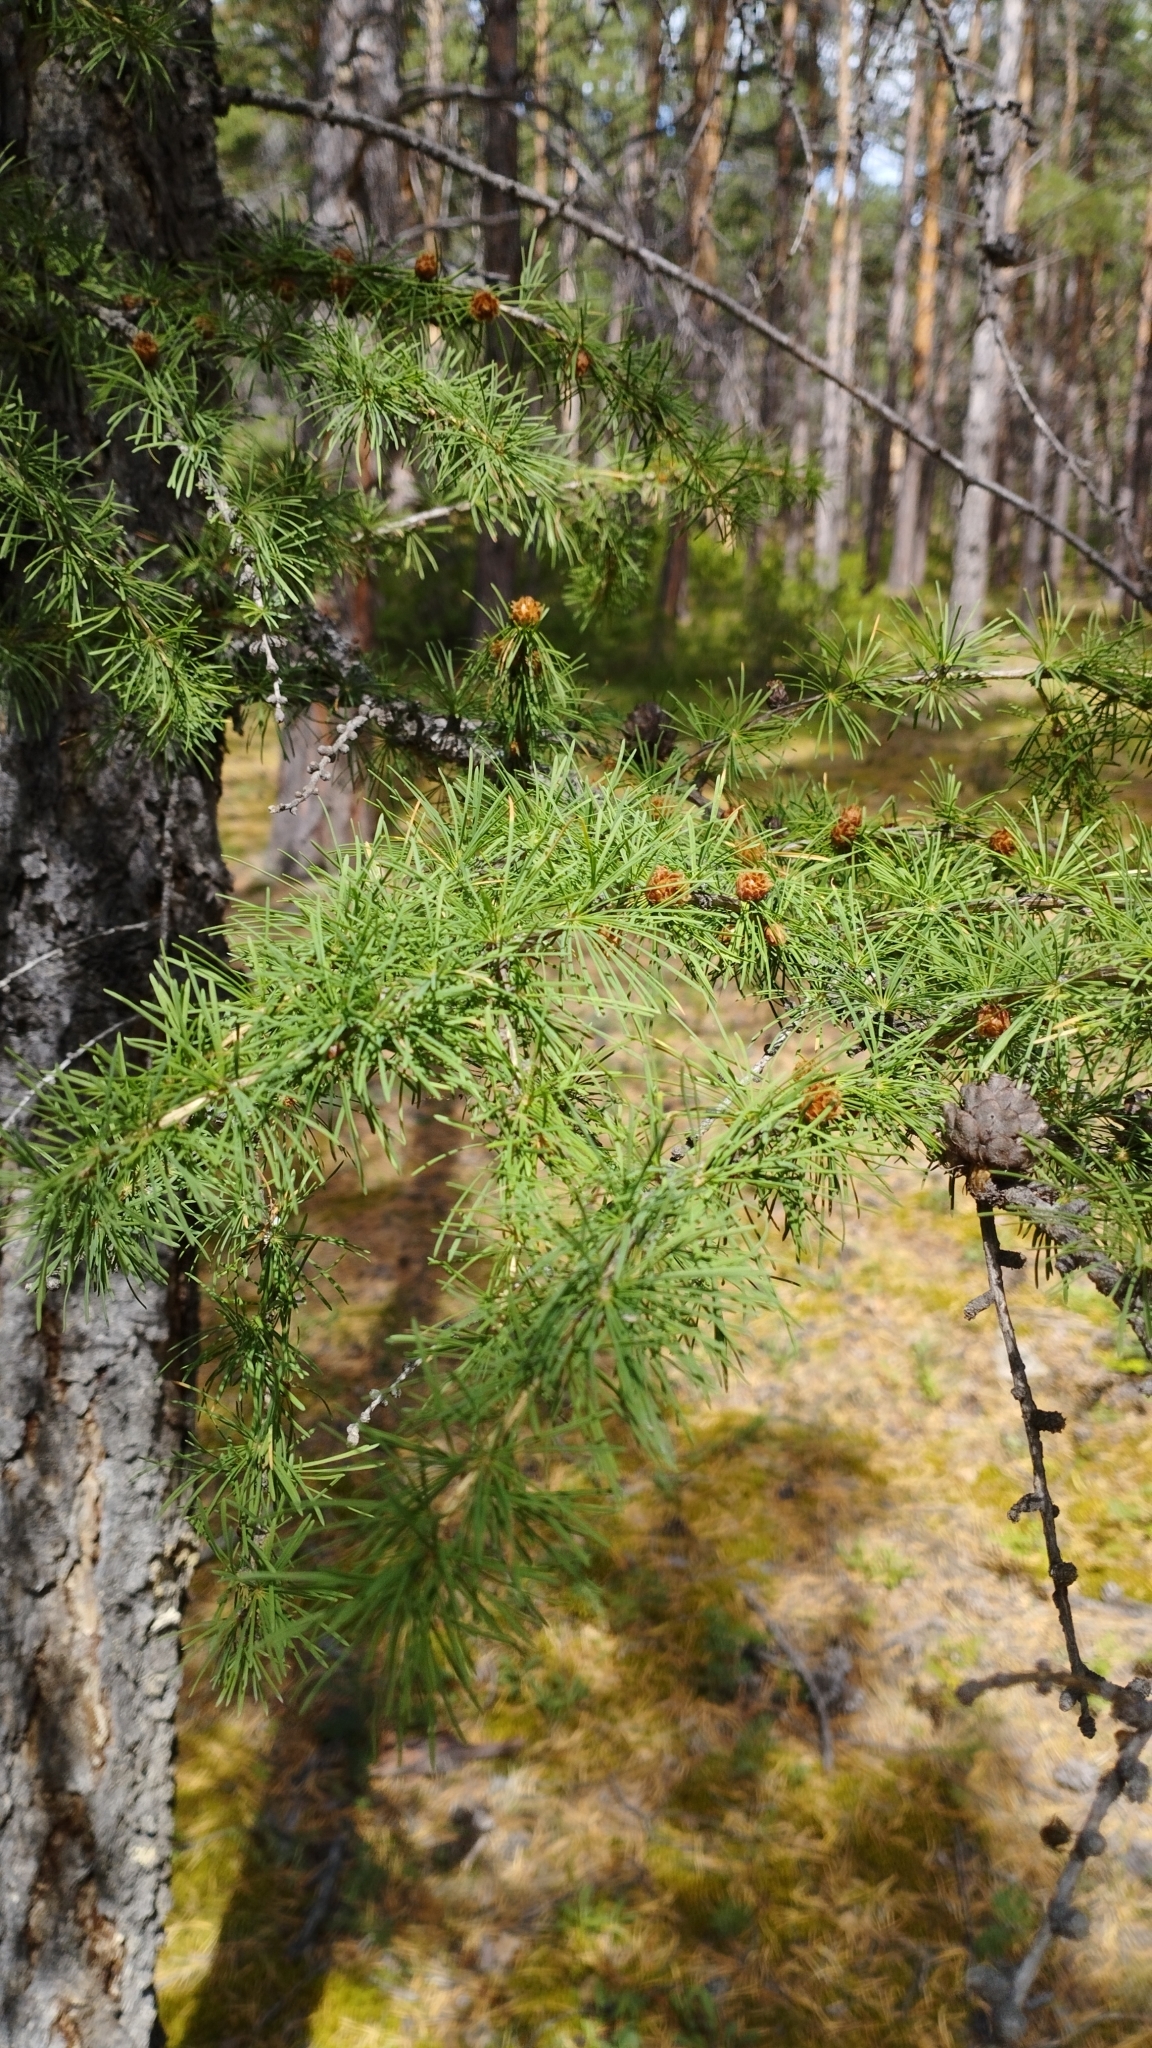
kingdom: Plantae
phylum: Tracheophyta
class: Pinopsida
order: Pinales
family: Pinaceae
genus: Larix
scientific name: Larix sibirica
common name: Siberian larch
